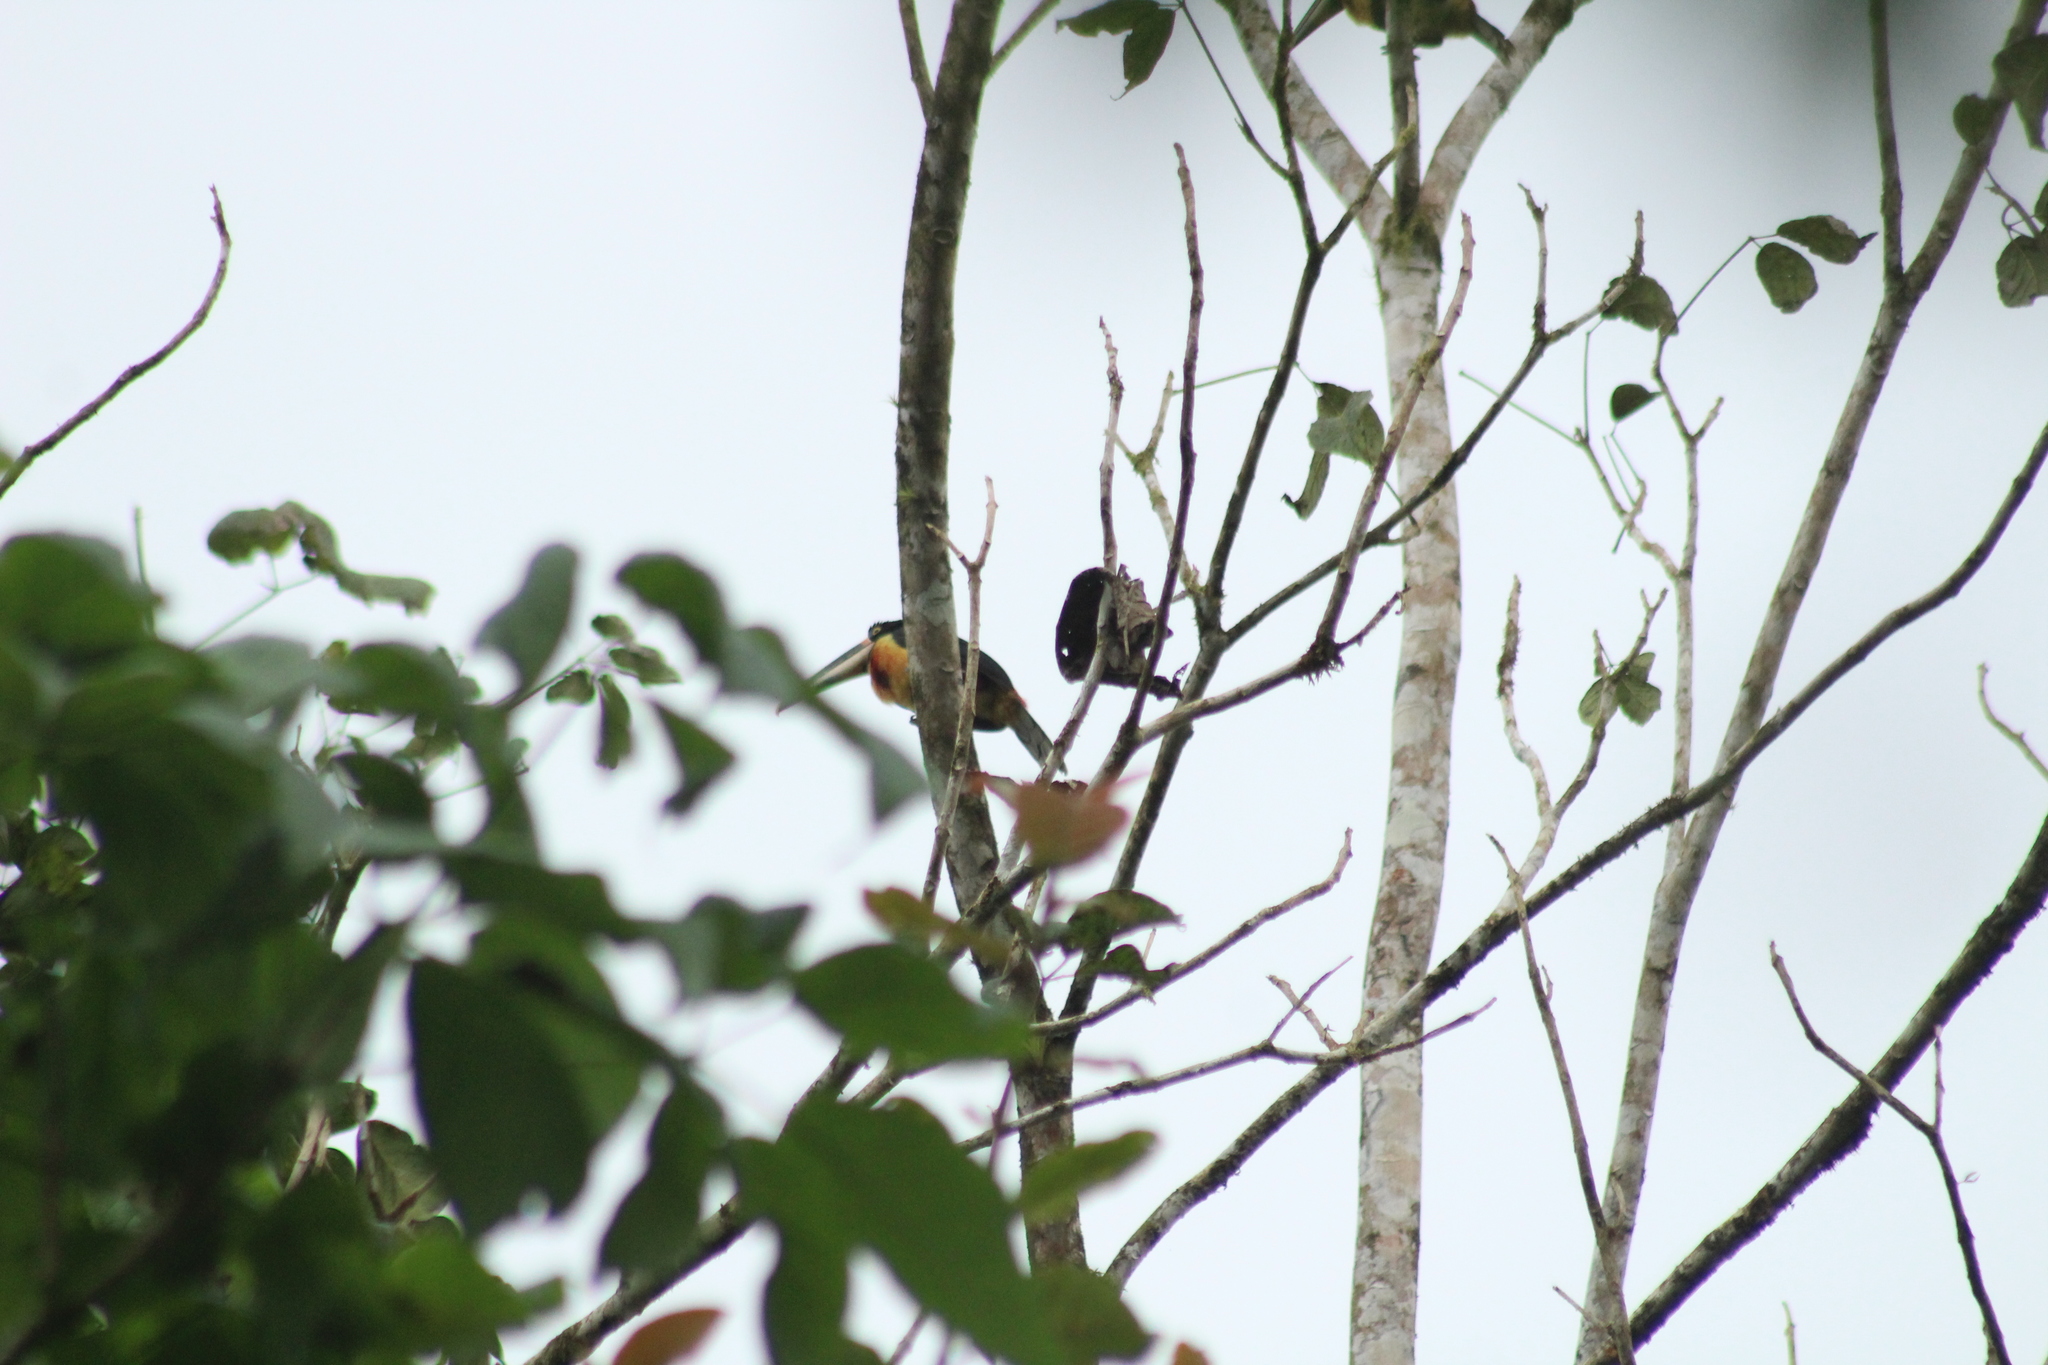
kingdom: Animalia
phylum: Chordata
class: Aves
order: Piciformes
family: Ramphastidae
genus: Pteroglossus
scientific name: Pteroglossus torquatus
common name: Collared aracari
